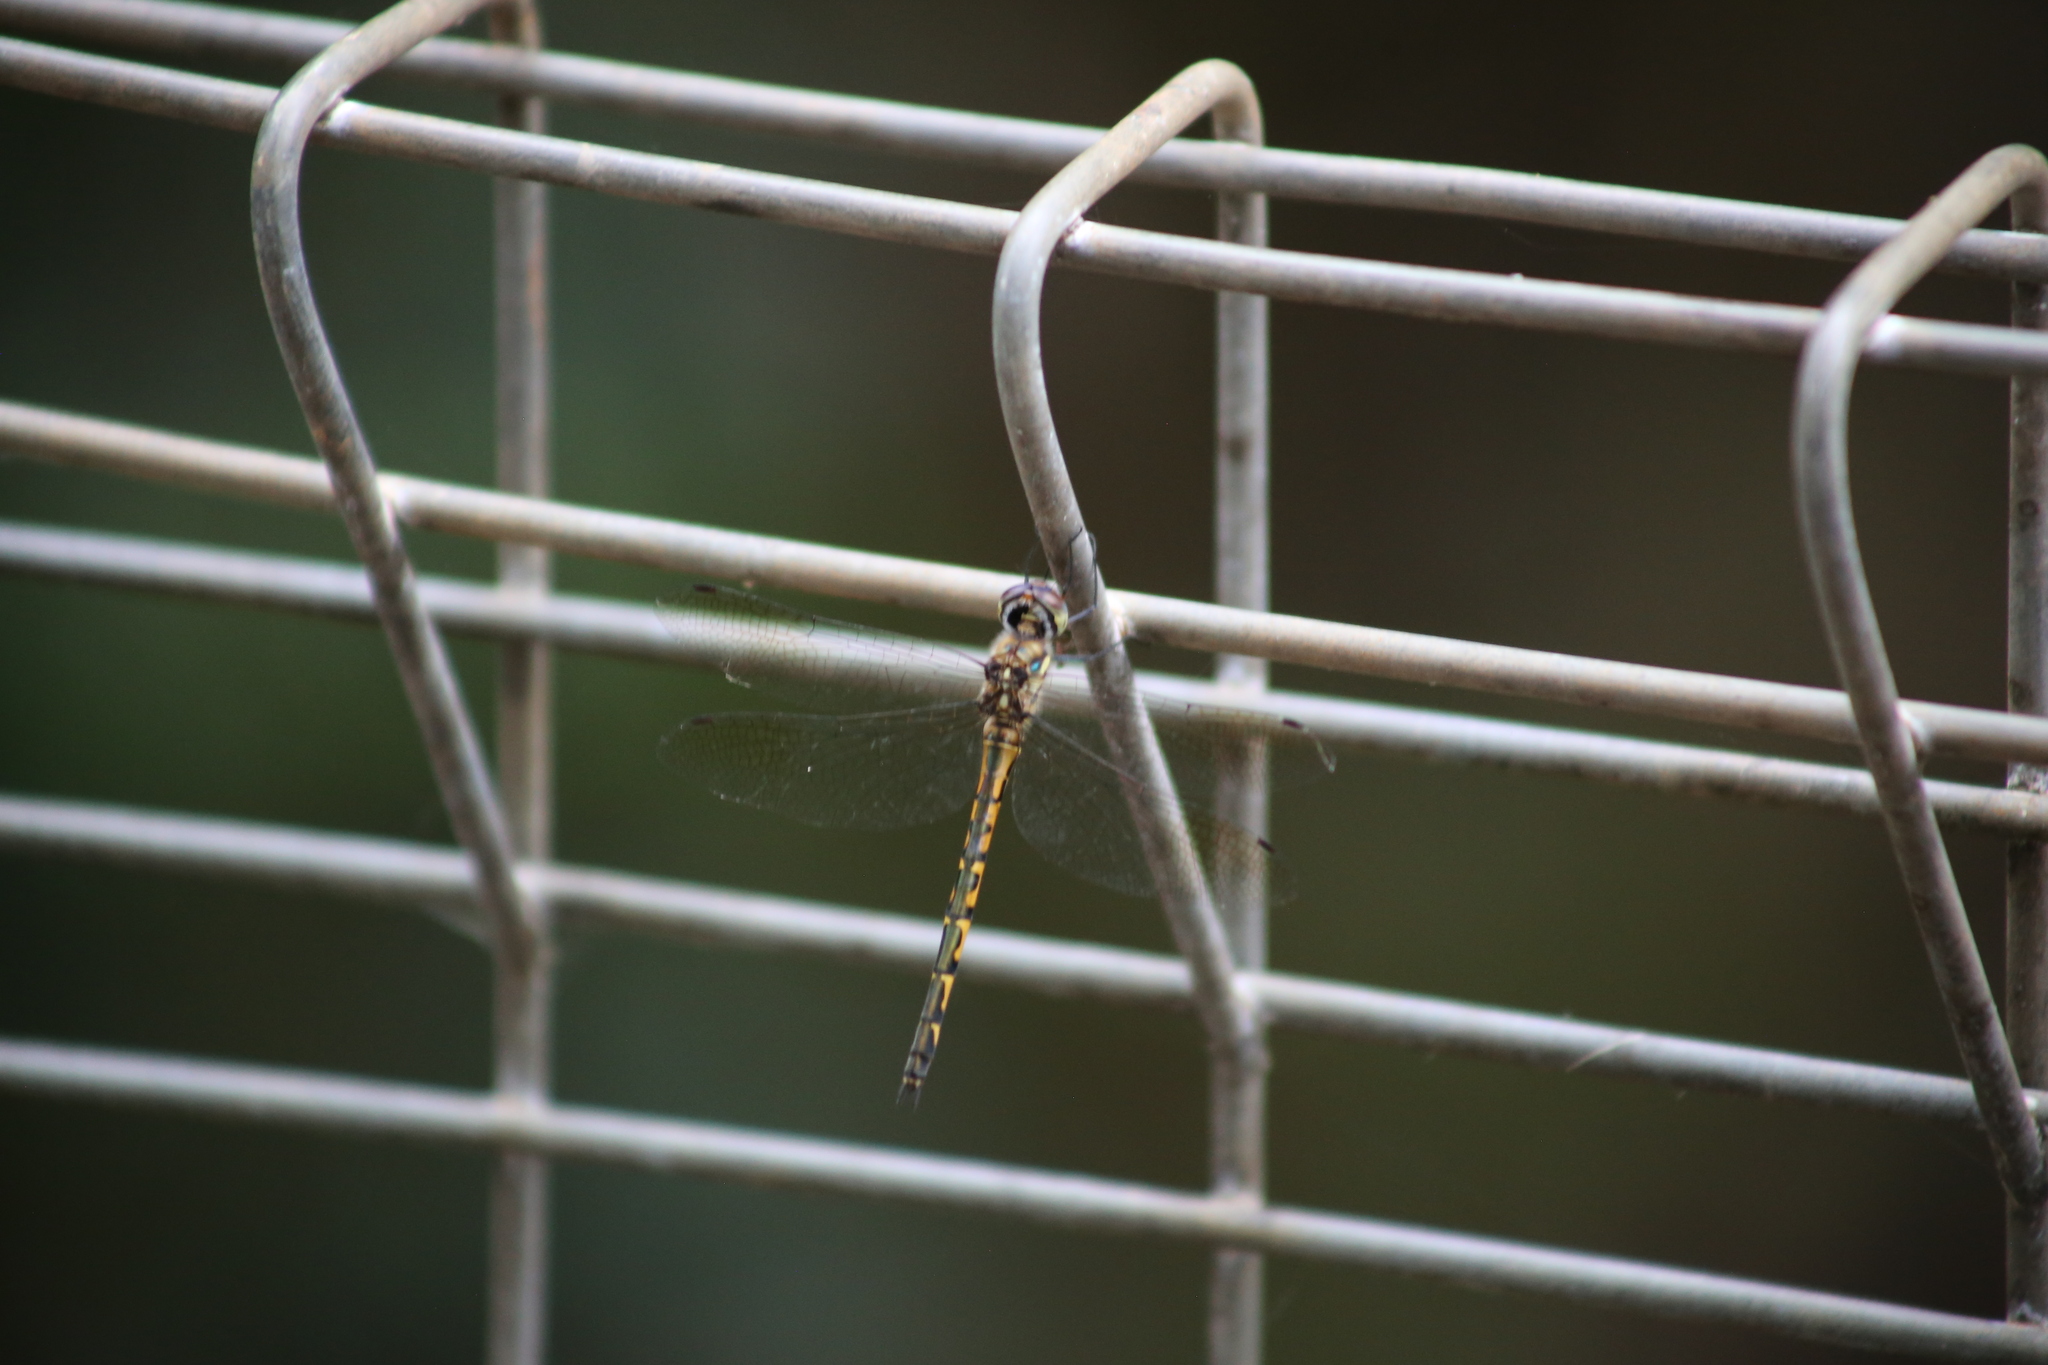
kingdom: Animalia
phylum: Arthropoda
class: Insecta
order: Odonata
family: Corduliidae
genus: Hemicordulia
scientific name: Hemicordulia australiae
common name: Sentry dragonfly
